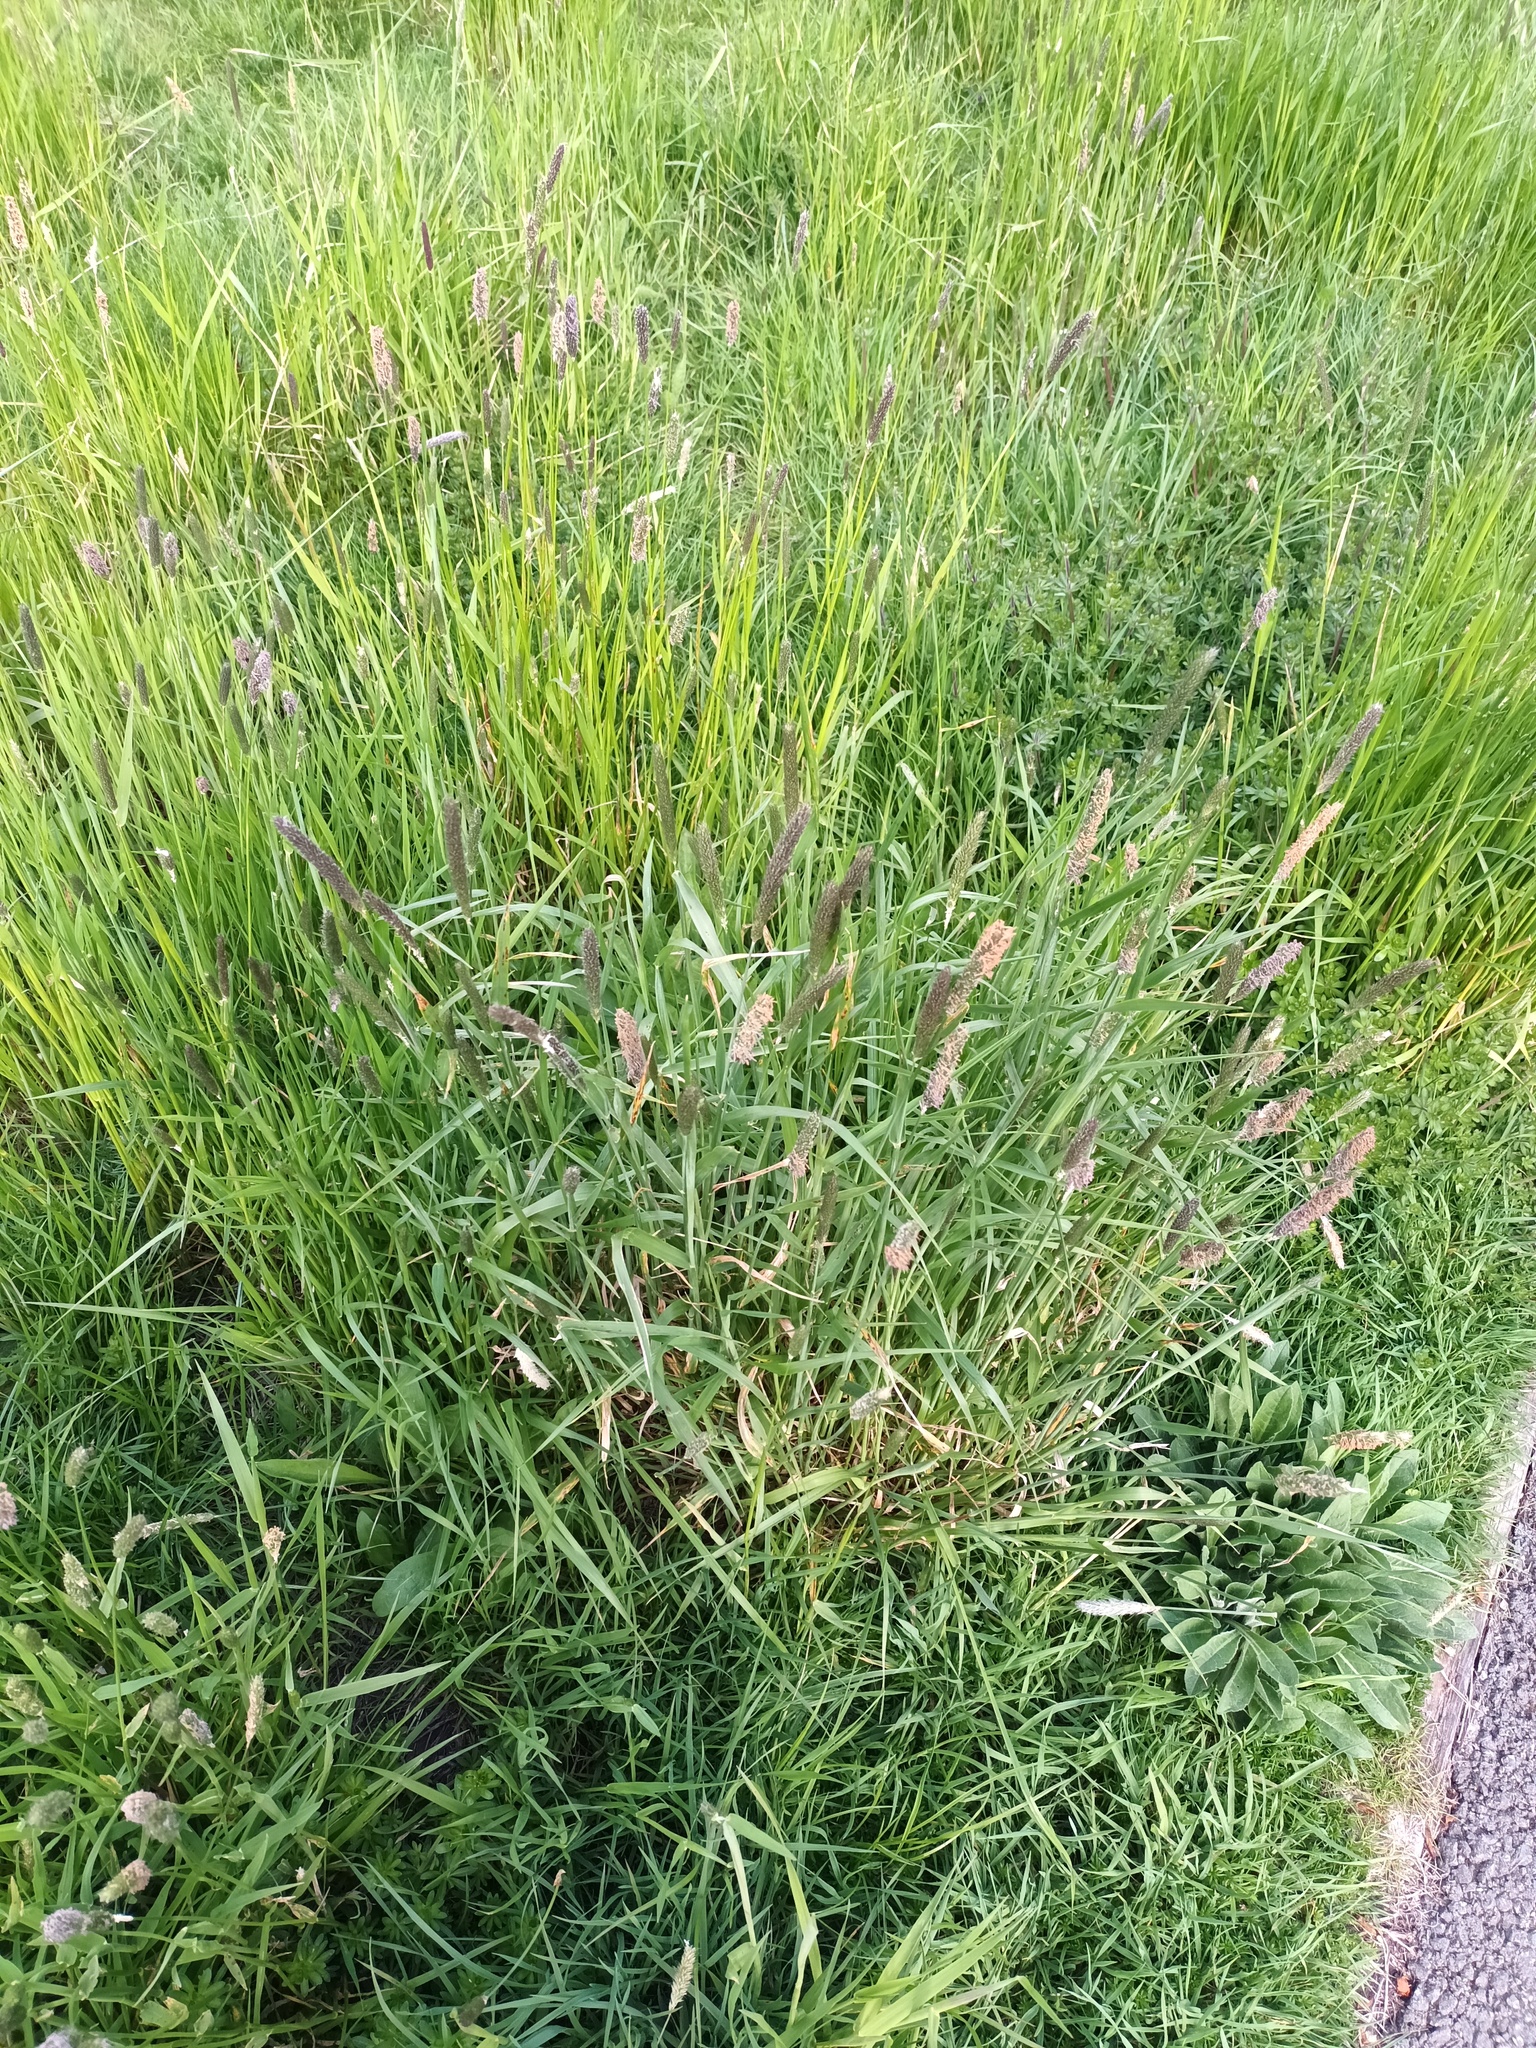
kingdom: Plantae
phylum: Tracheophyta
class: Liliopsida
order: Poales
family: Poaceae
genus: Alopecurus
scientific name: Alopecurus pratensis
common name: Meadow foxtail
